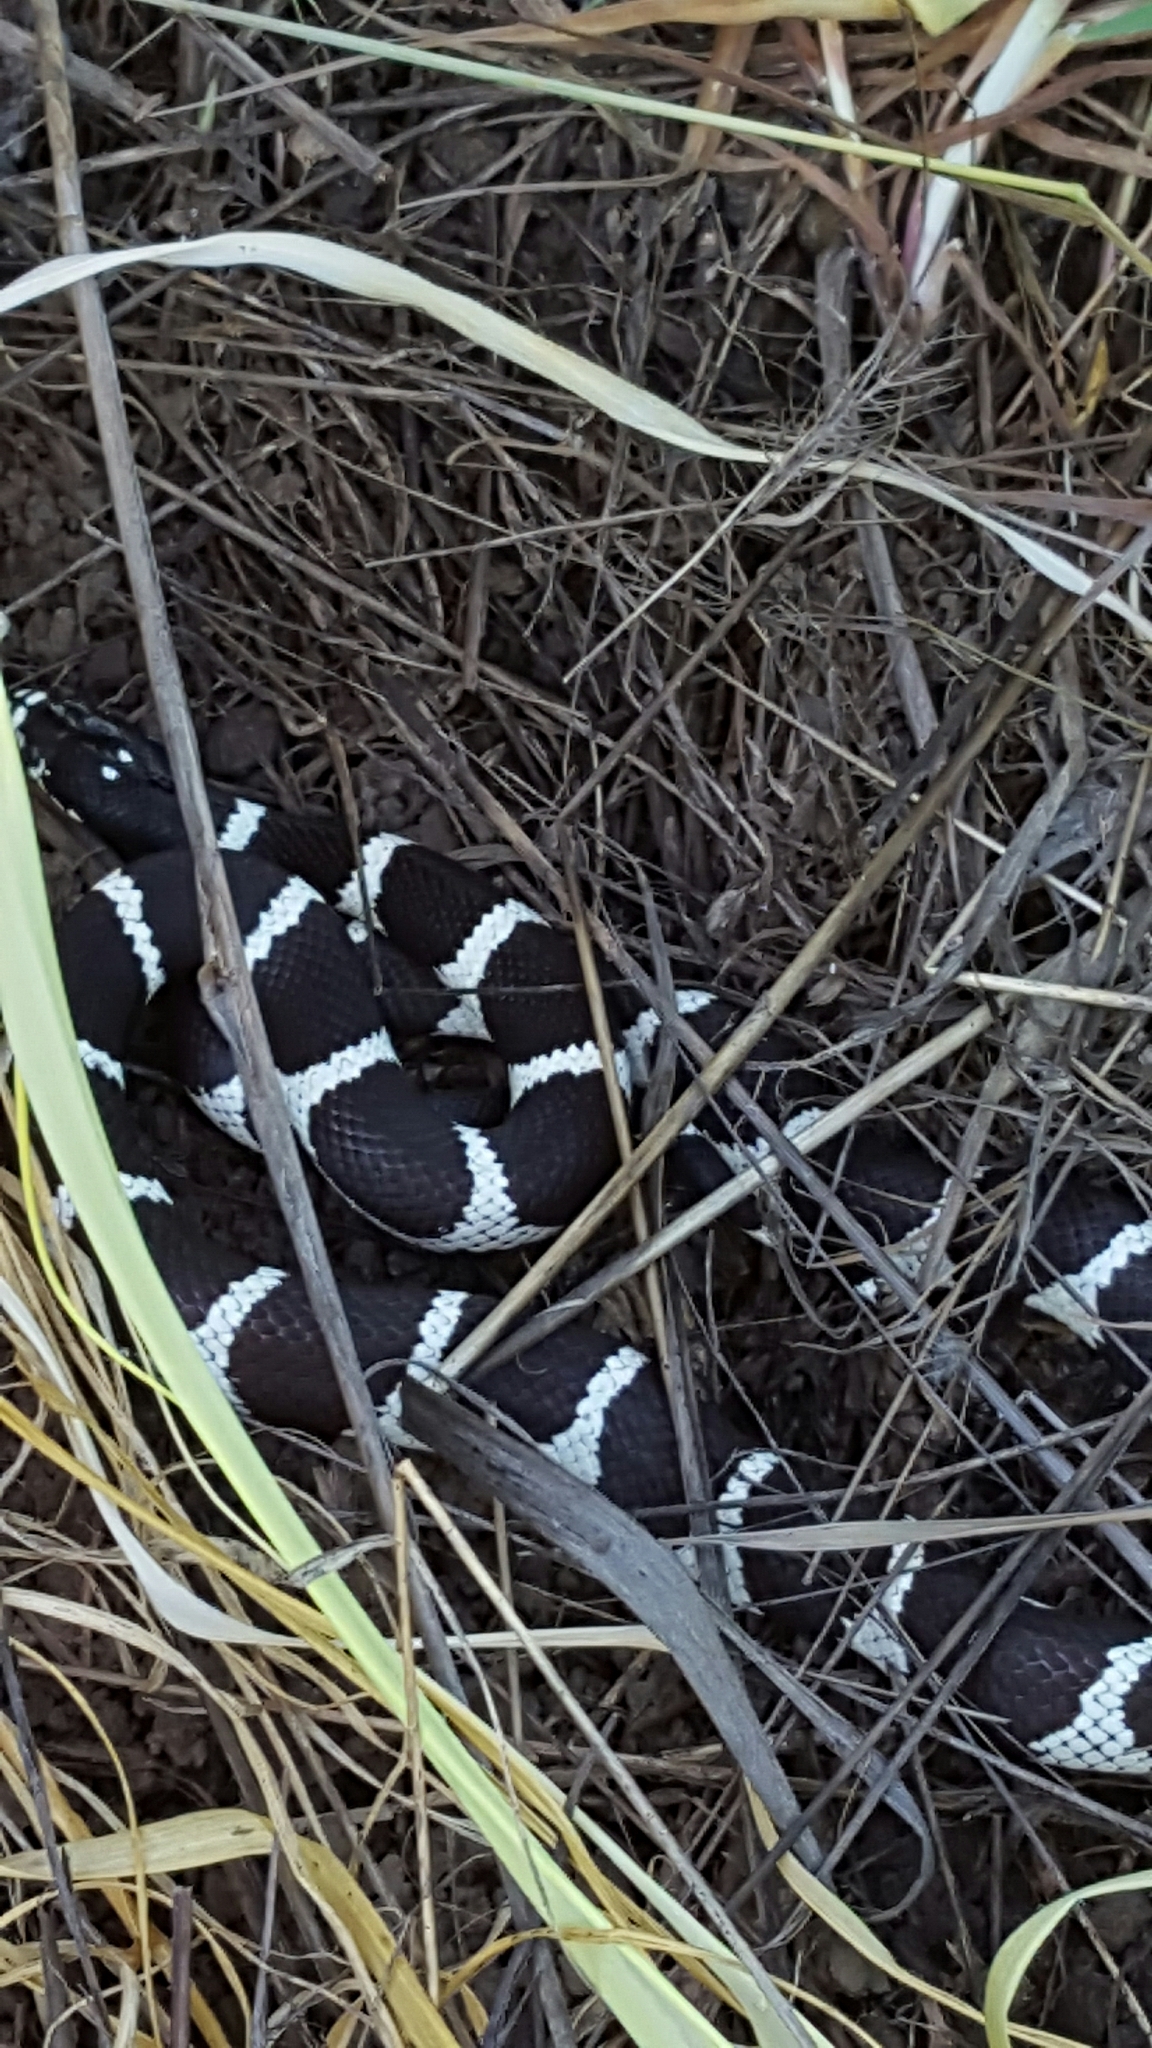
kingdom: Animalia
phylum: Chordata
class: Squamata
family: Colubridae
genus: Lampropeltis
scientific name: Lampropeltis californiae
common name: California kingsnake
